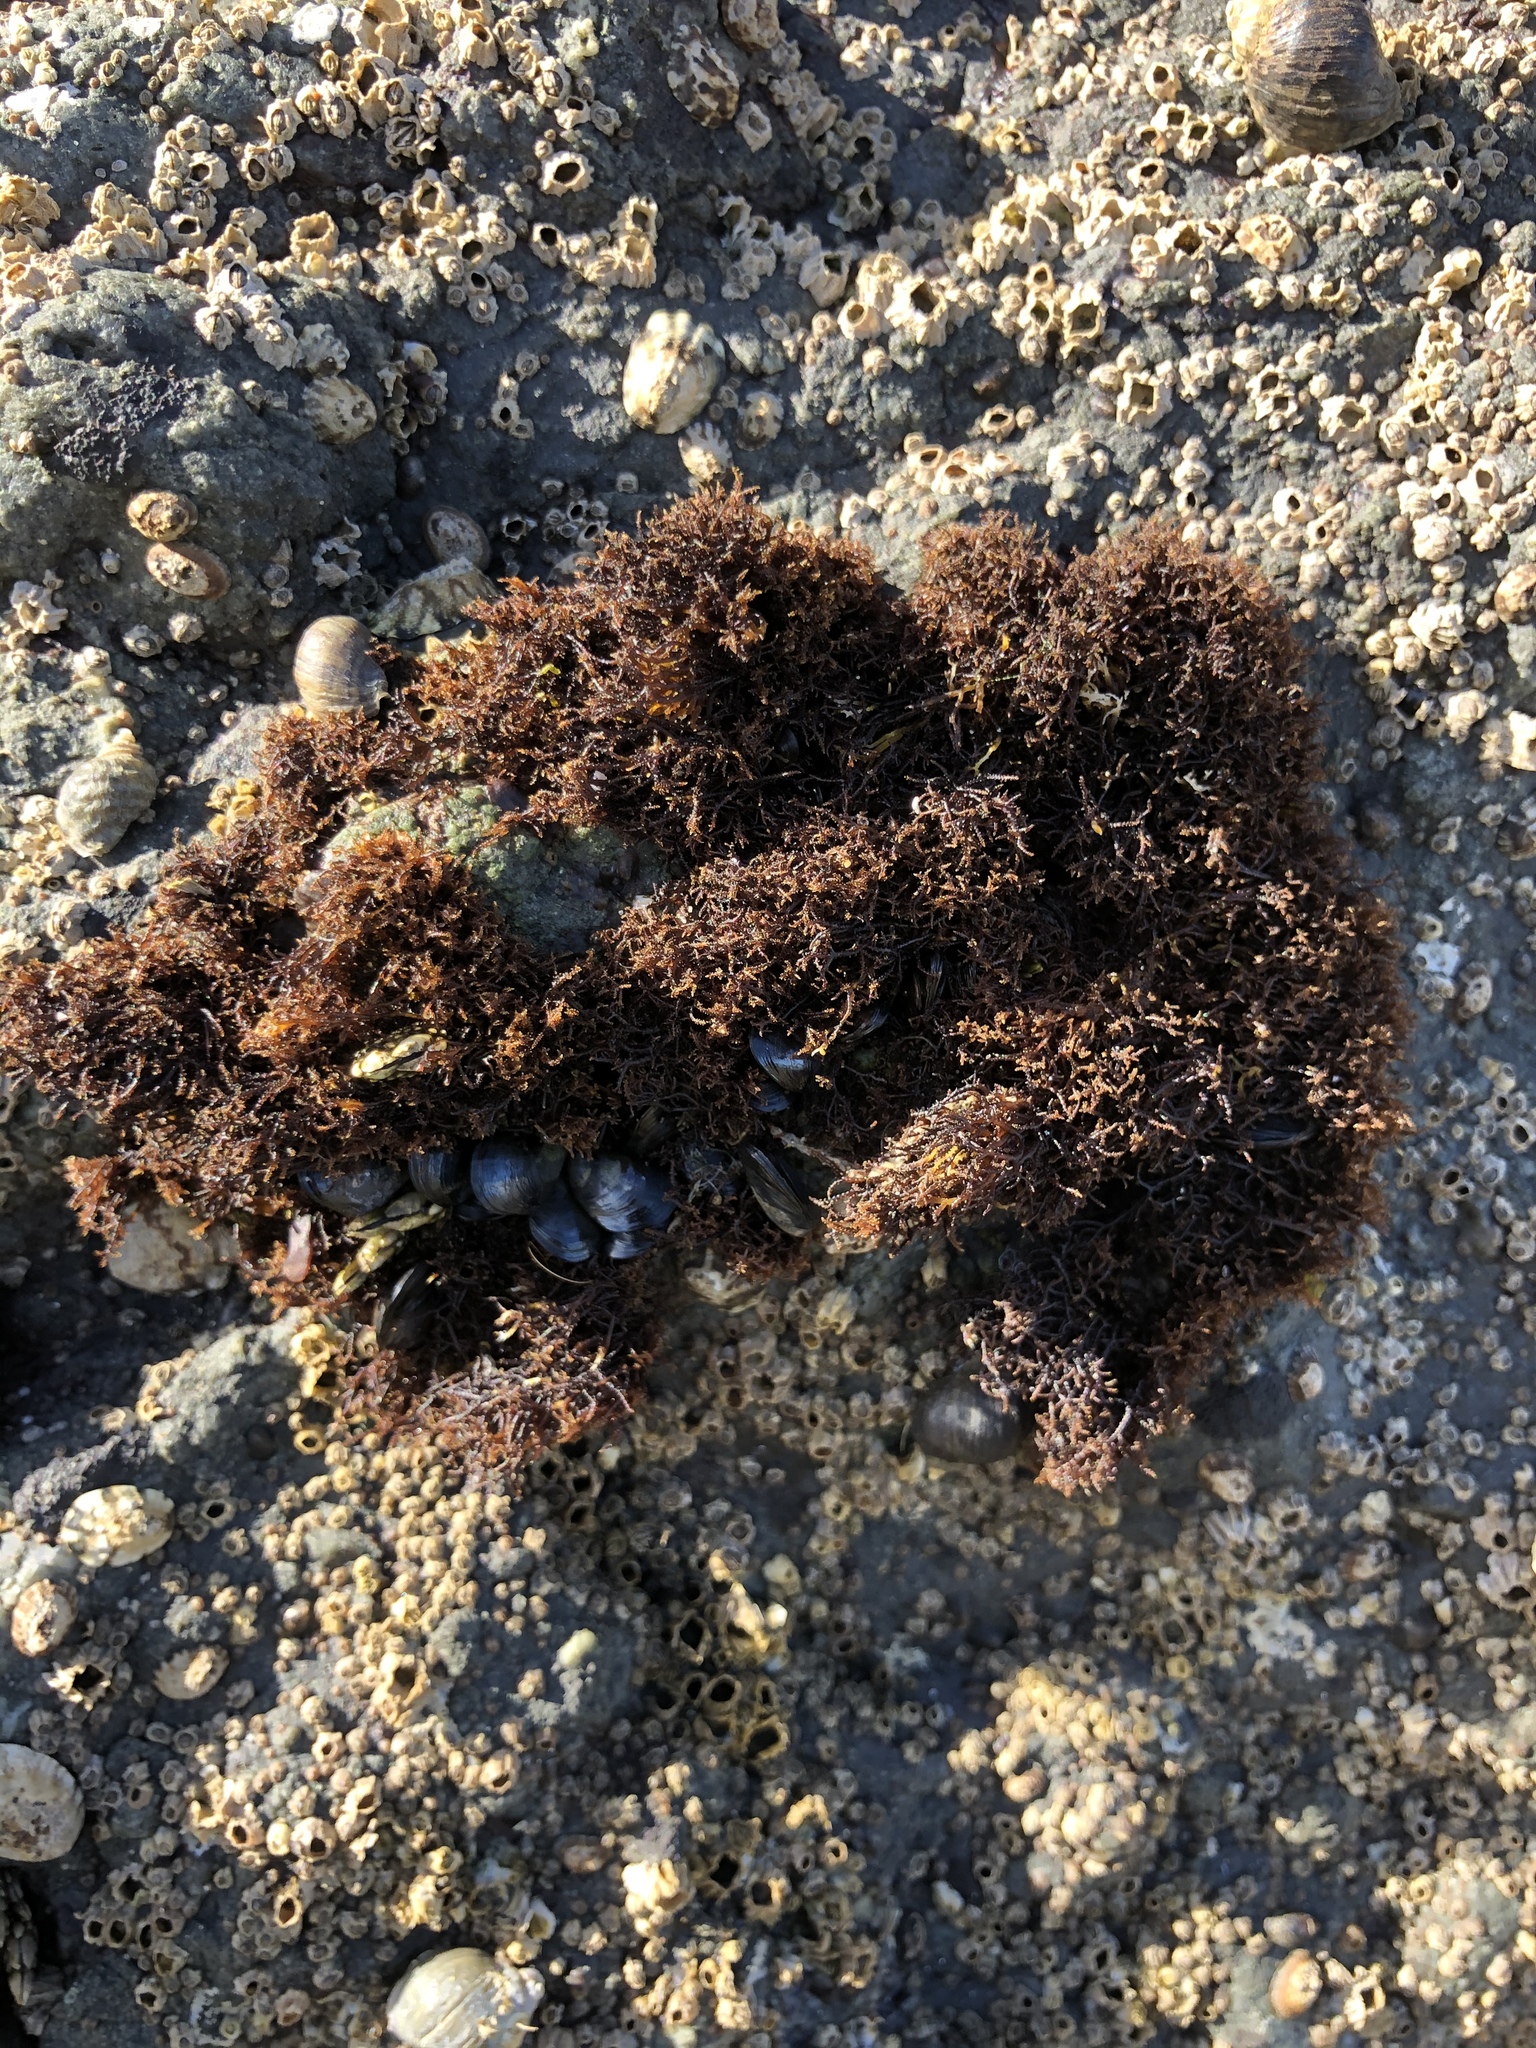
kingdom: Plantae
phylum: Rhodophyta
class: Florideophyceae
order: Gigartinales
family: Endocladiaceae
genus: Endocladia
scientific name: Endocladia muricata
